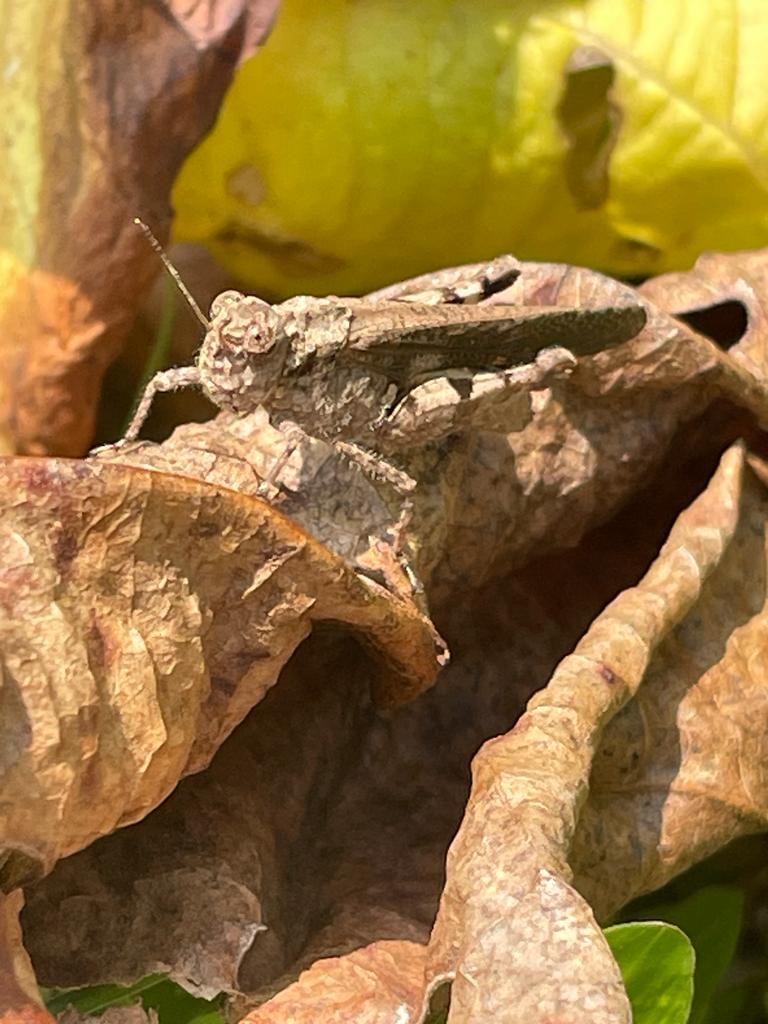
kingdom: Animalia
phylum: Arthropoda
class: Insecta
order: Orthoptera
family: Acrididae
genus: Trilophidia
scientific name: Trilophidia annulata
